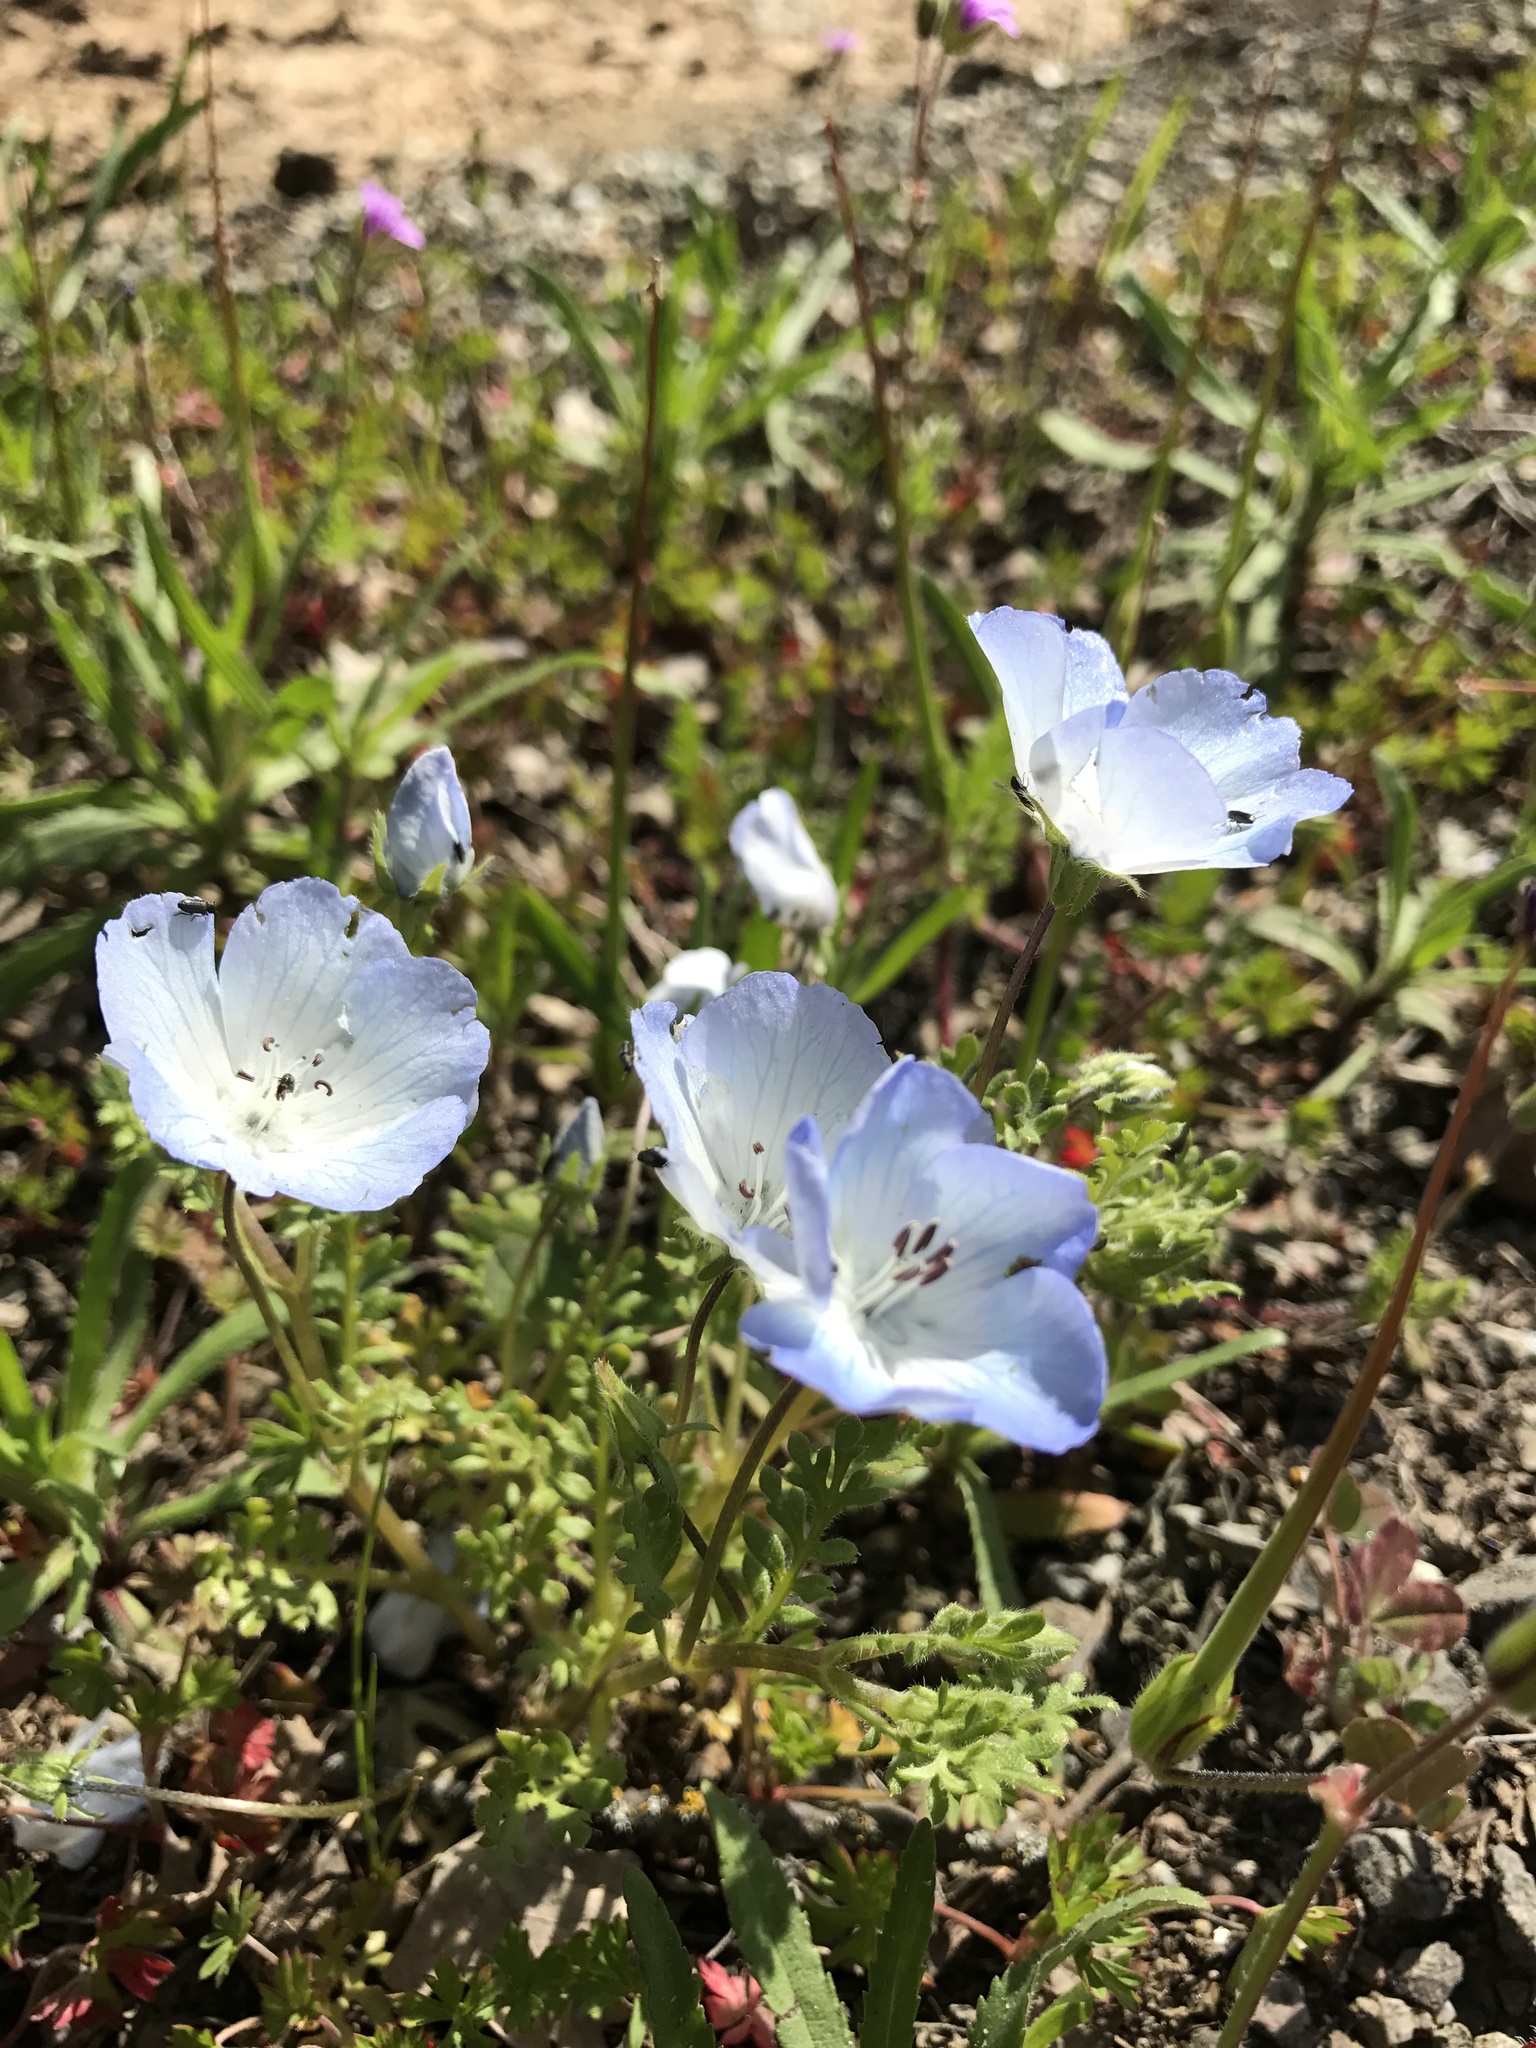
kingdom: Plantae
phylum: Tracheophyta
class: Magnoliopsida
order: Boraginales
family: Hydrophyllaceae
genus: Nemophila
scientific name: Nemophila menziesii
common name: Baby's-blue-eyes
